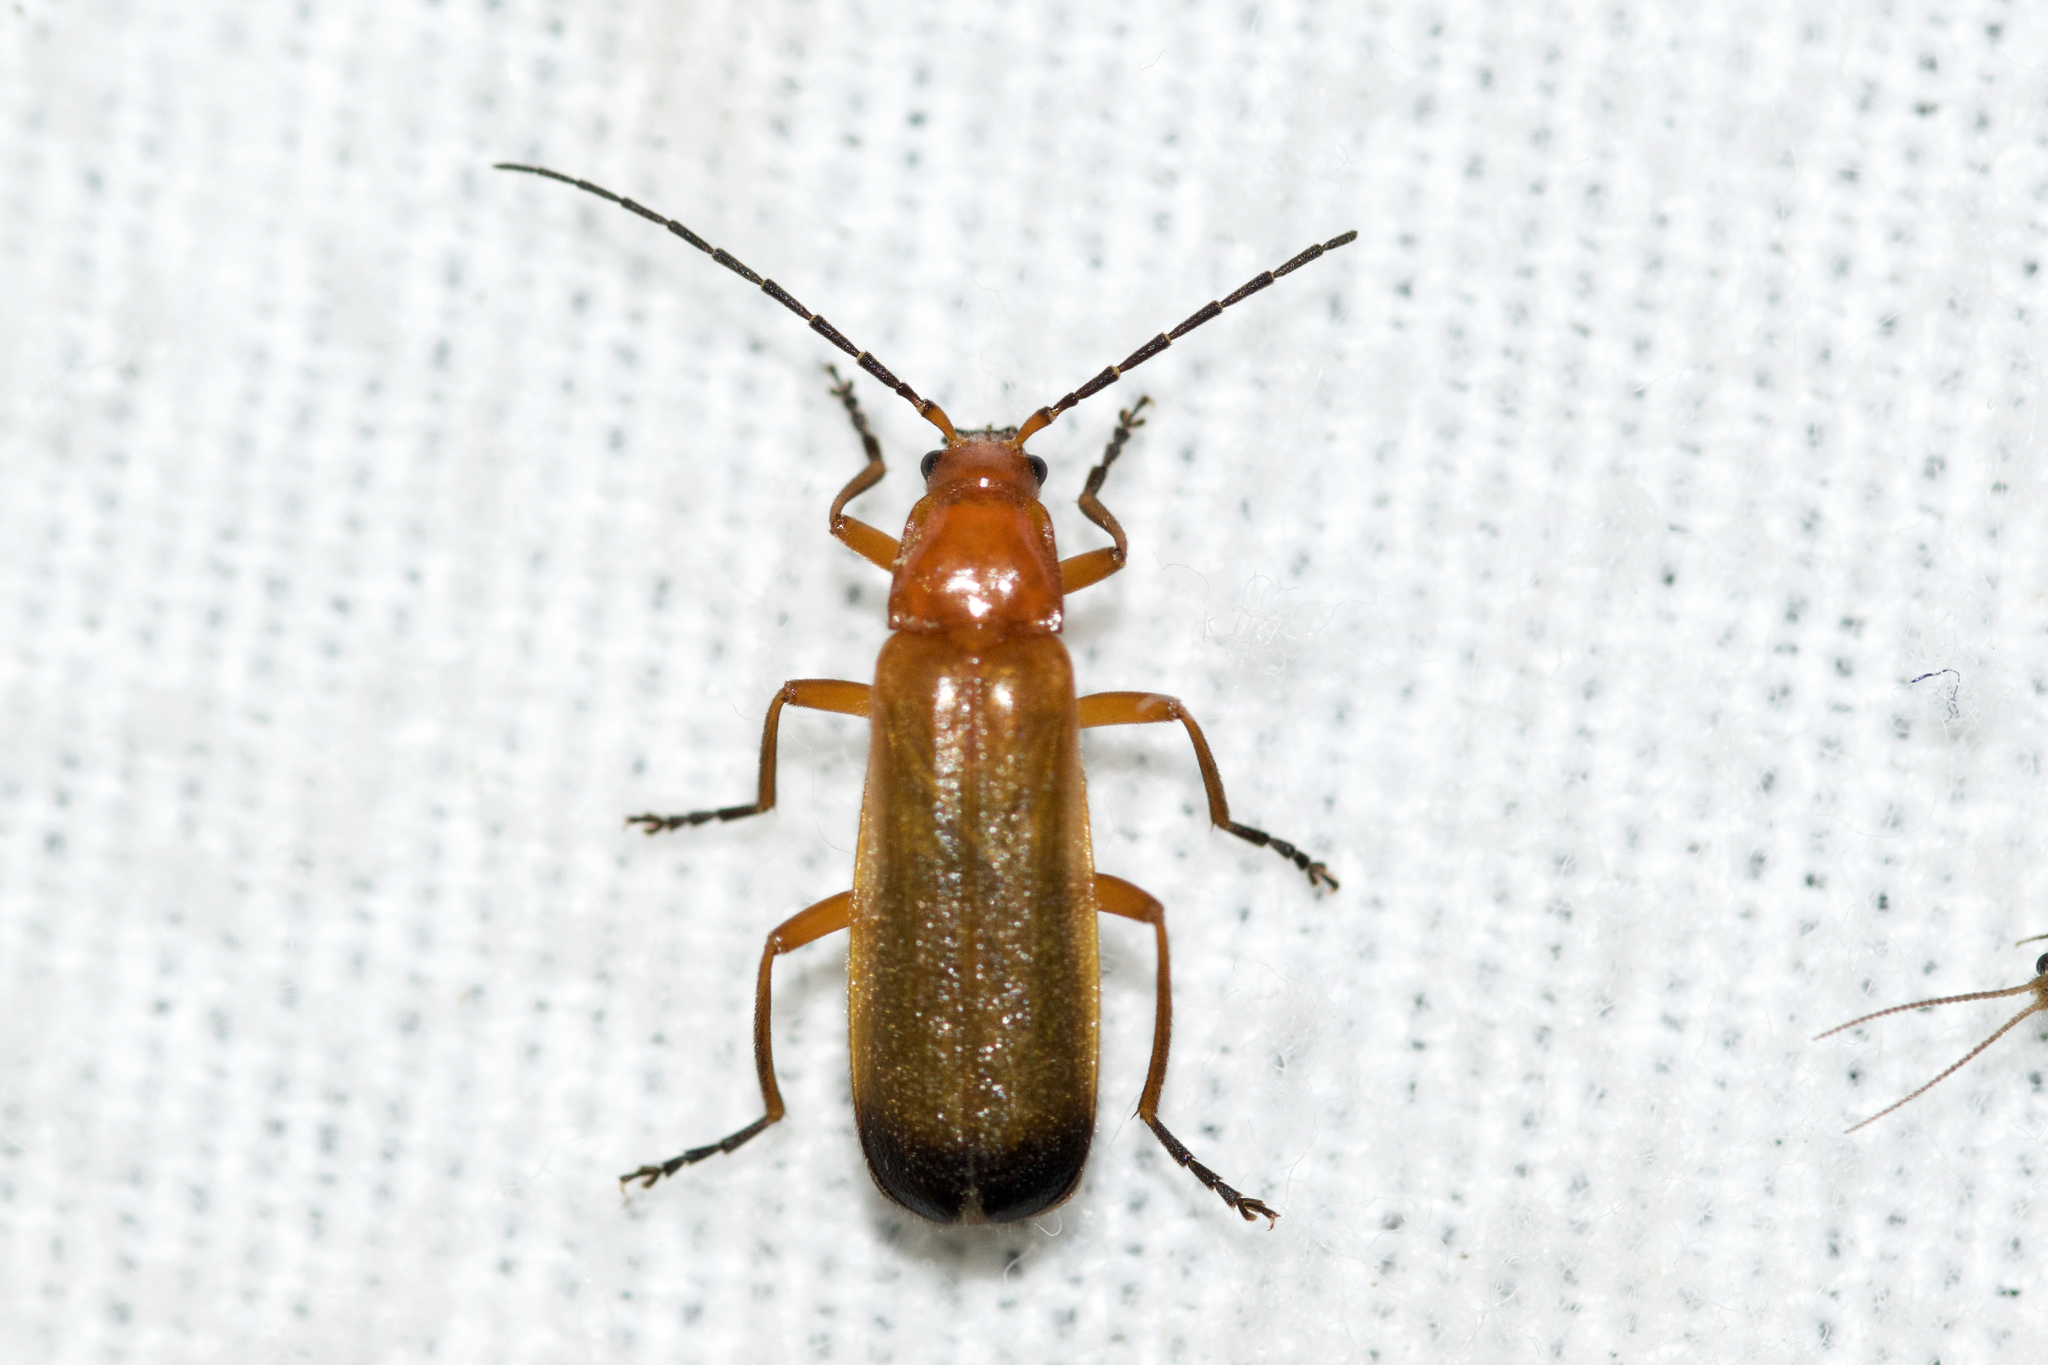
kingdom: Animalia
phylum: Arthropoda
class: Insecta
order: Coleoptera
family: Cantharidae
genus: Rhagonycha
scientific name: Rhagonycha fulva
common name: Common red soldier beetle
